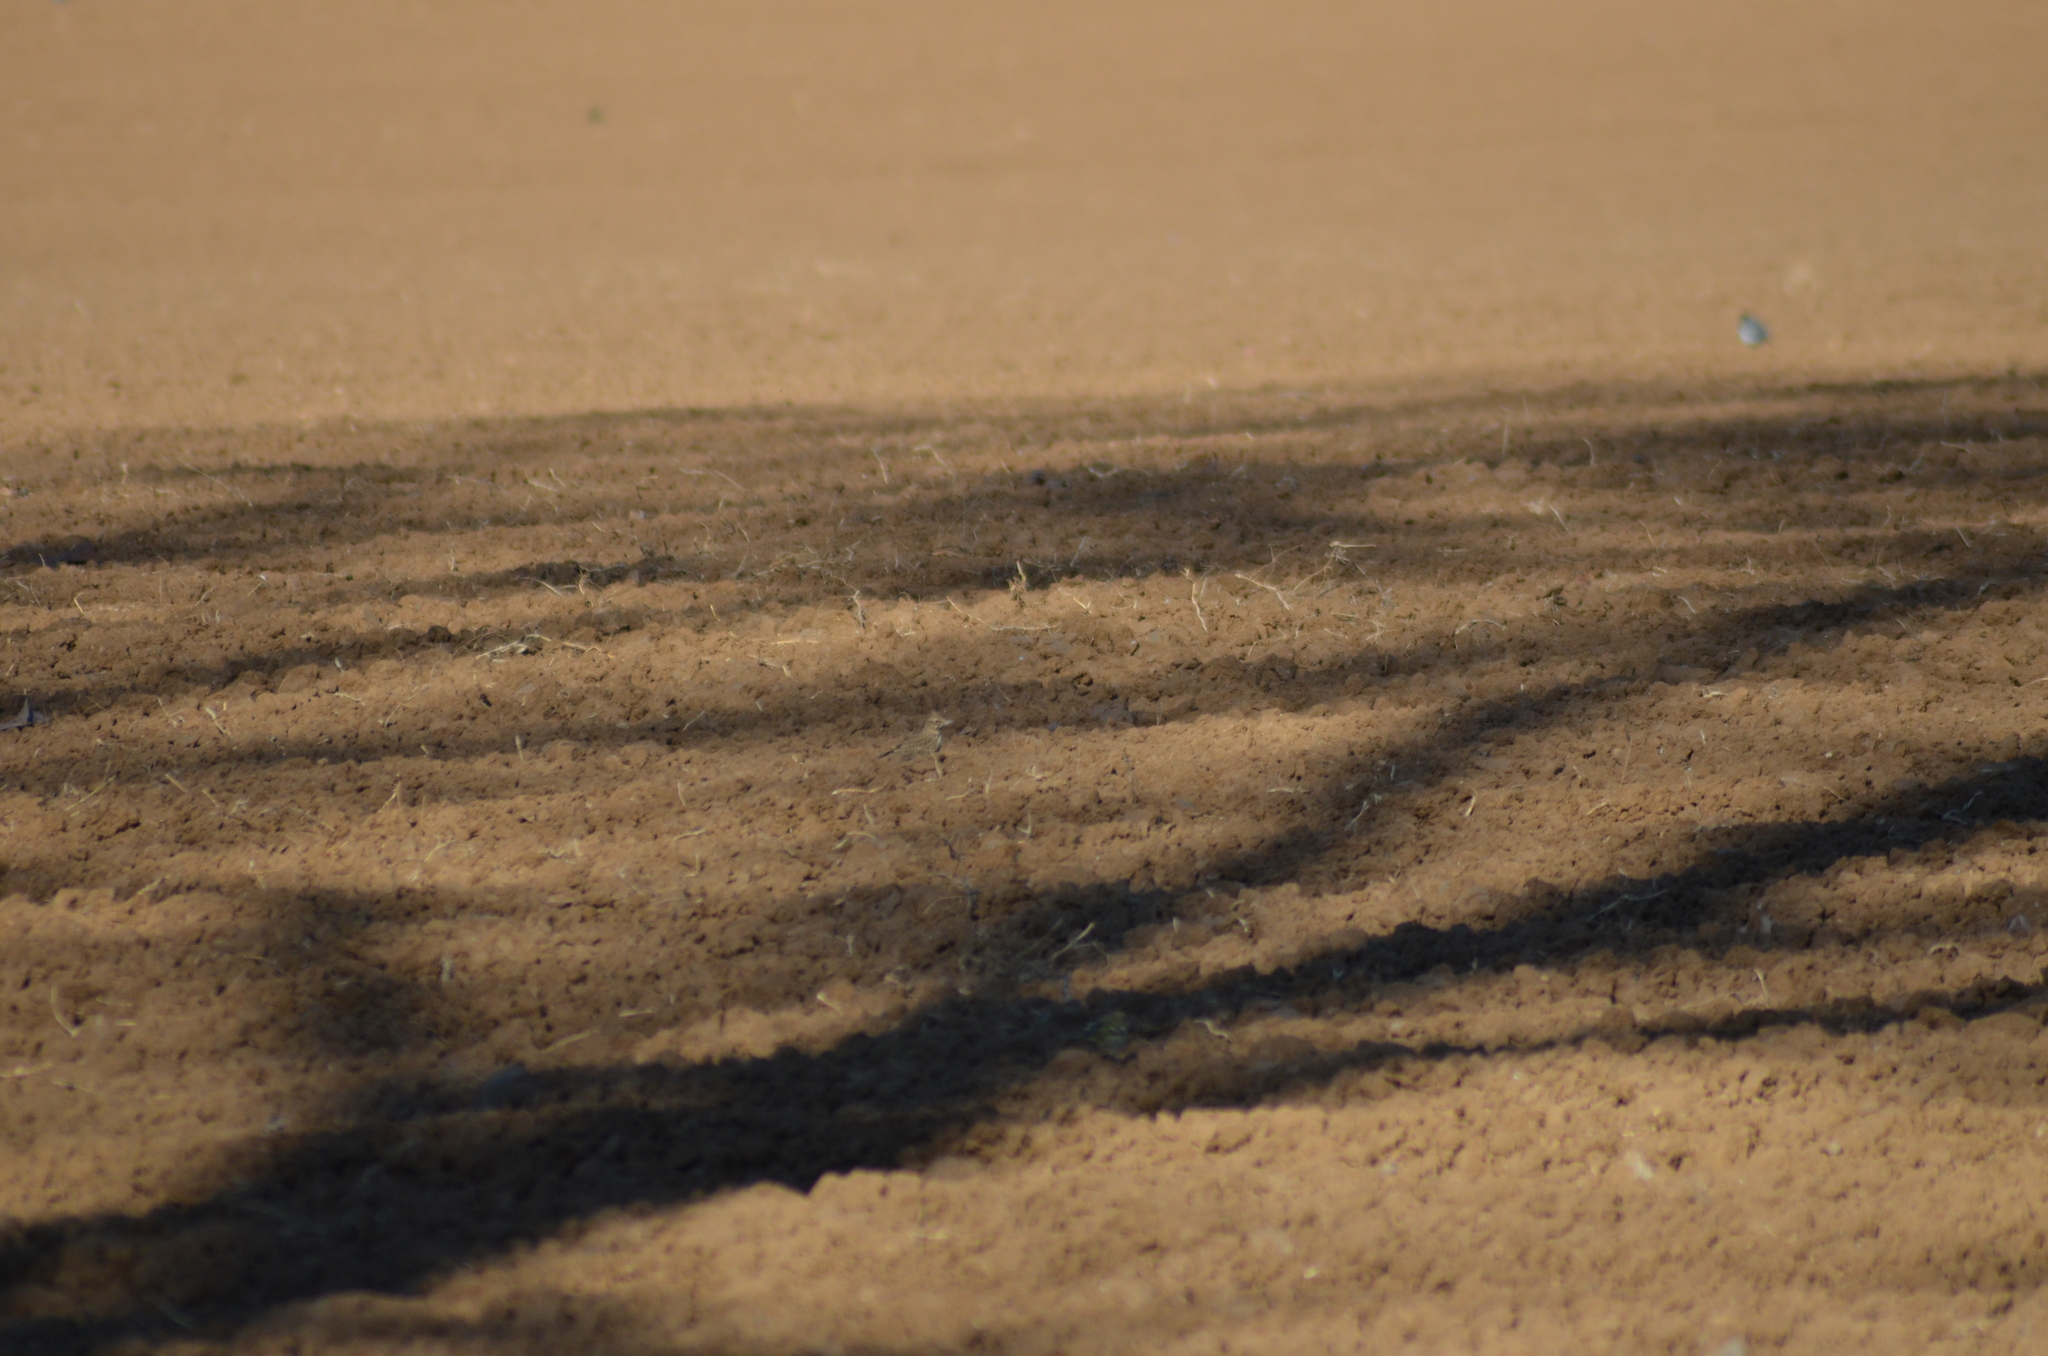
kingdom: Animalia
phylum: Chordata
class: Aves
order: Passeriformes
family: Alaudidae
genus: Galerida
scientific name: Galerida cristata
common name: Crested lark
